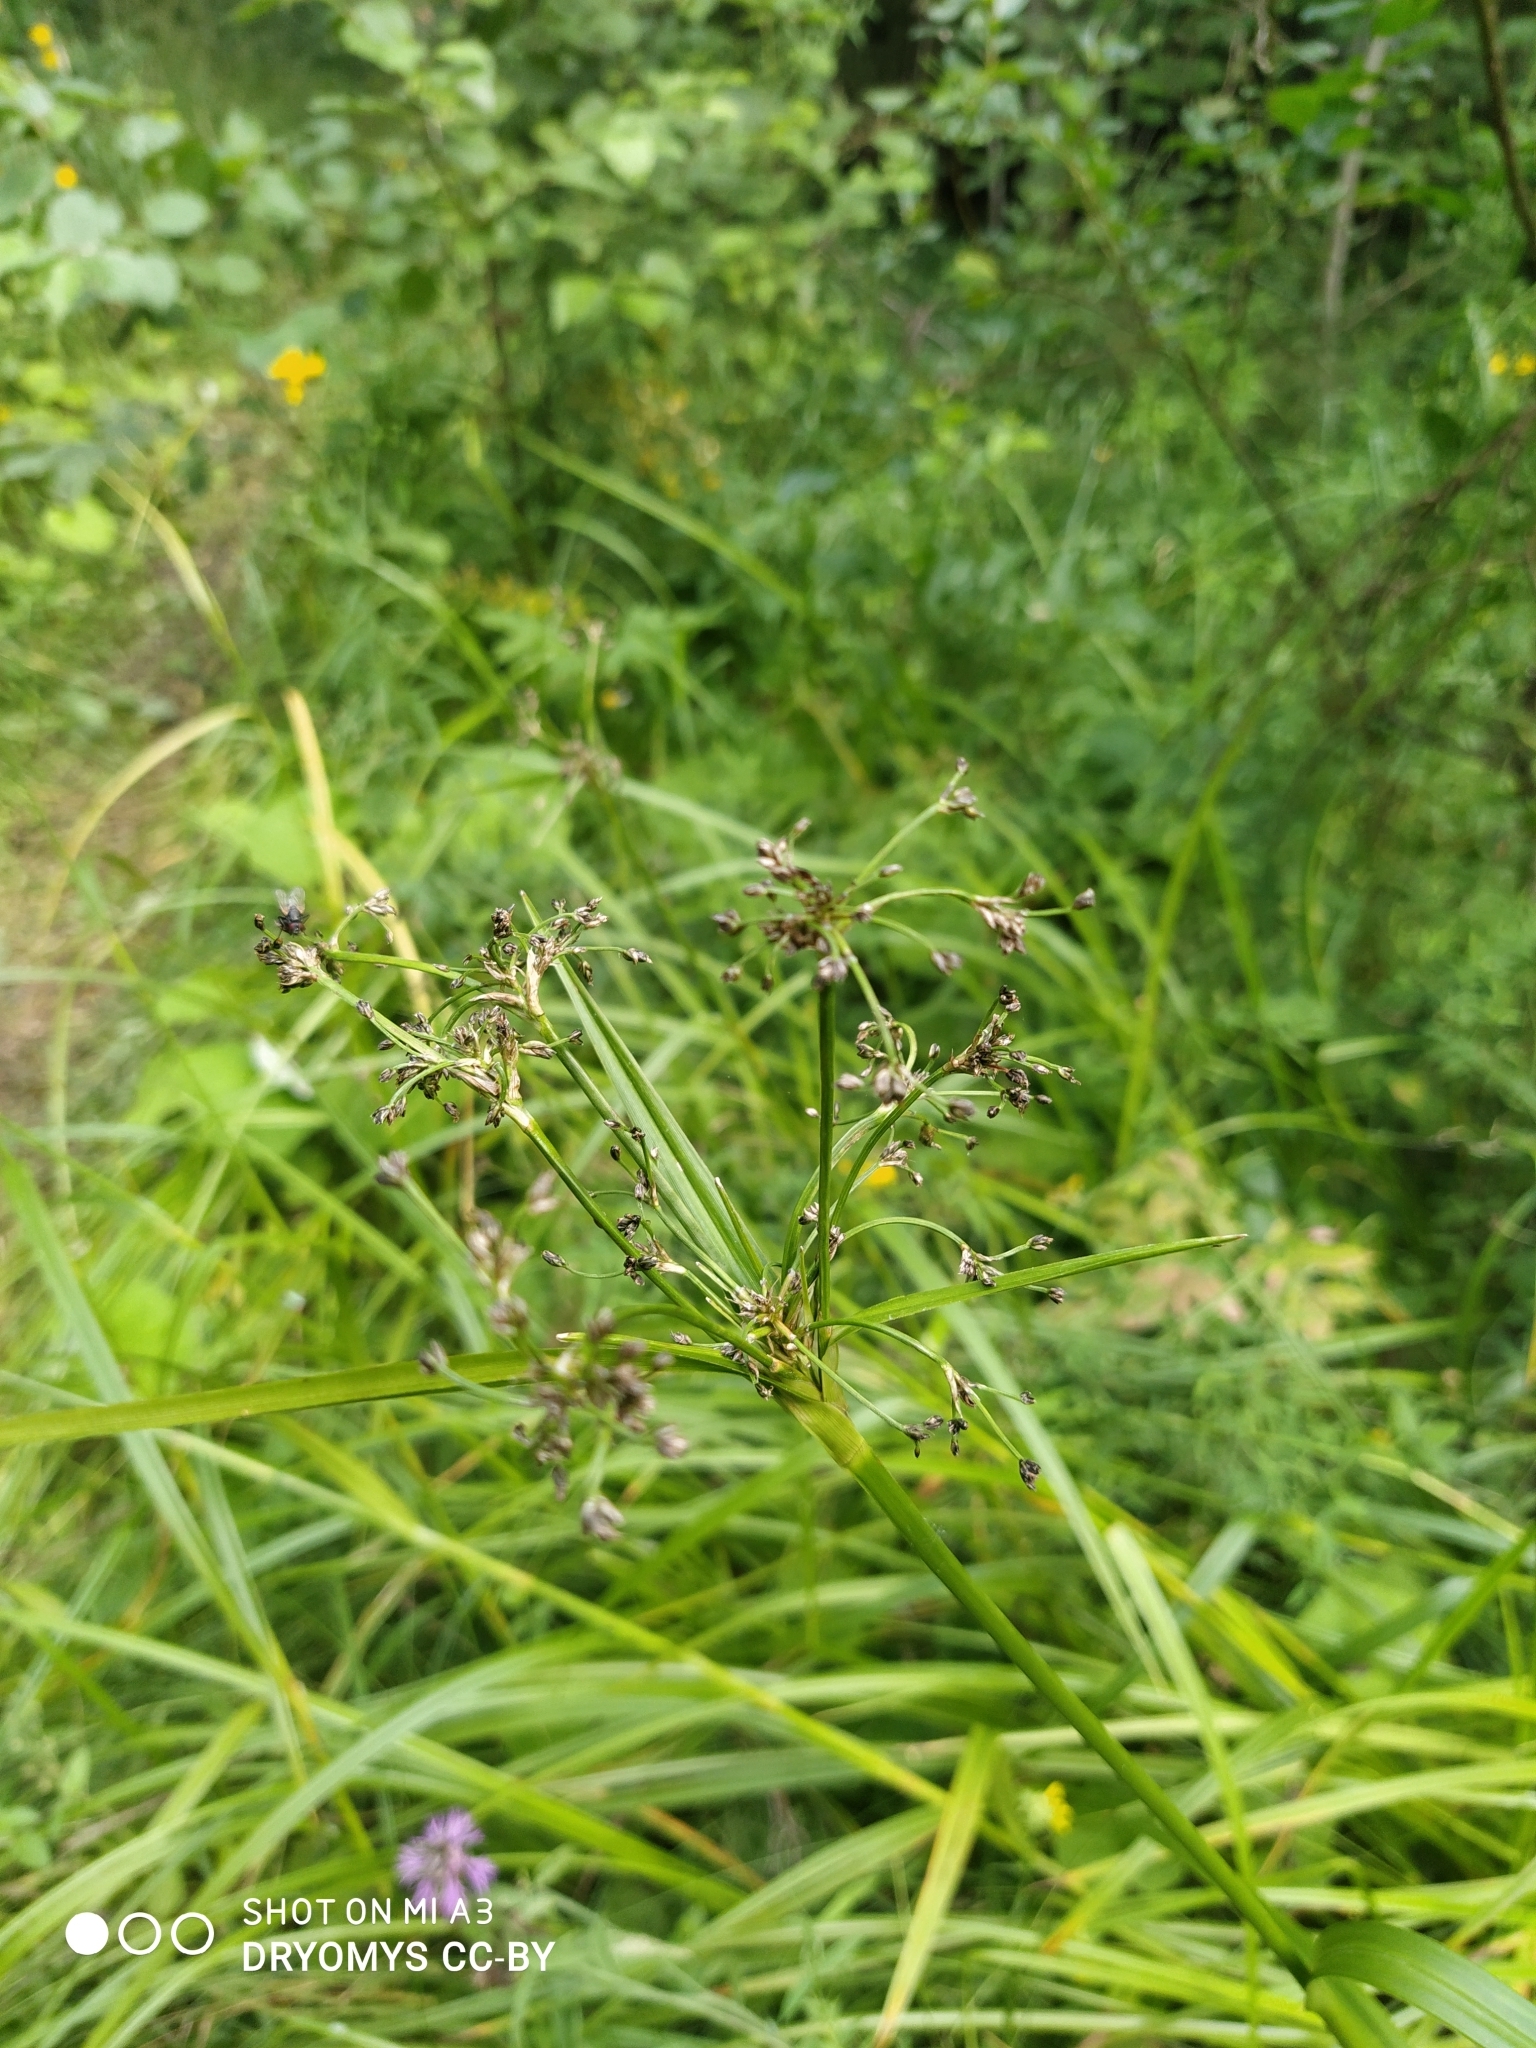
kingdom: Plantae
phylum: Tracheophyta
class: Liliopsida
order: Poales
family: Cyperaceae
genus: Scirpus
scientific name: Scirpus sylvaticus
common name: Wood club-rush
